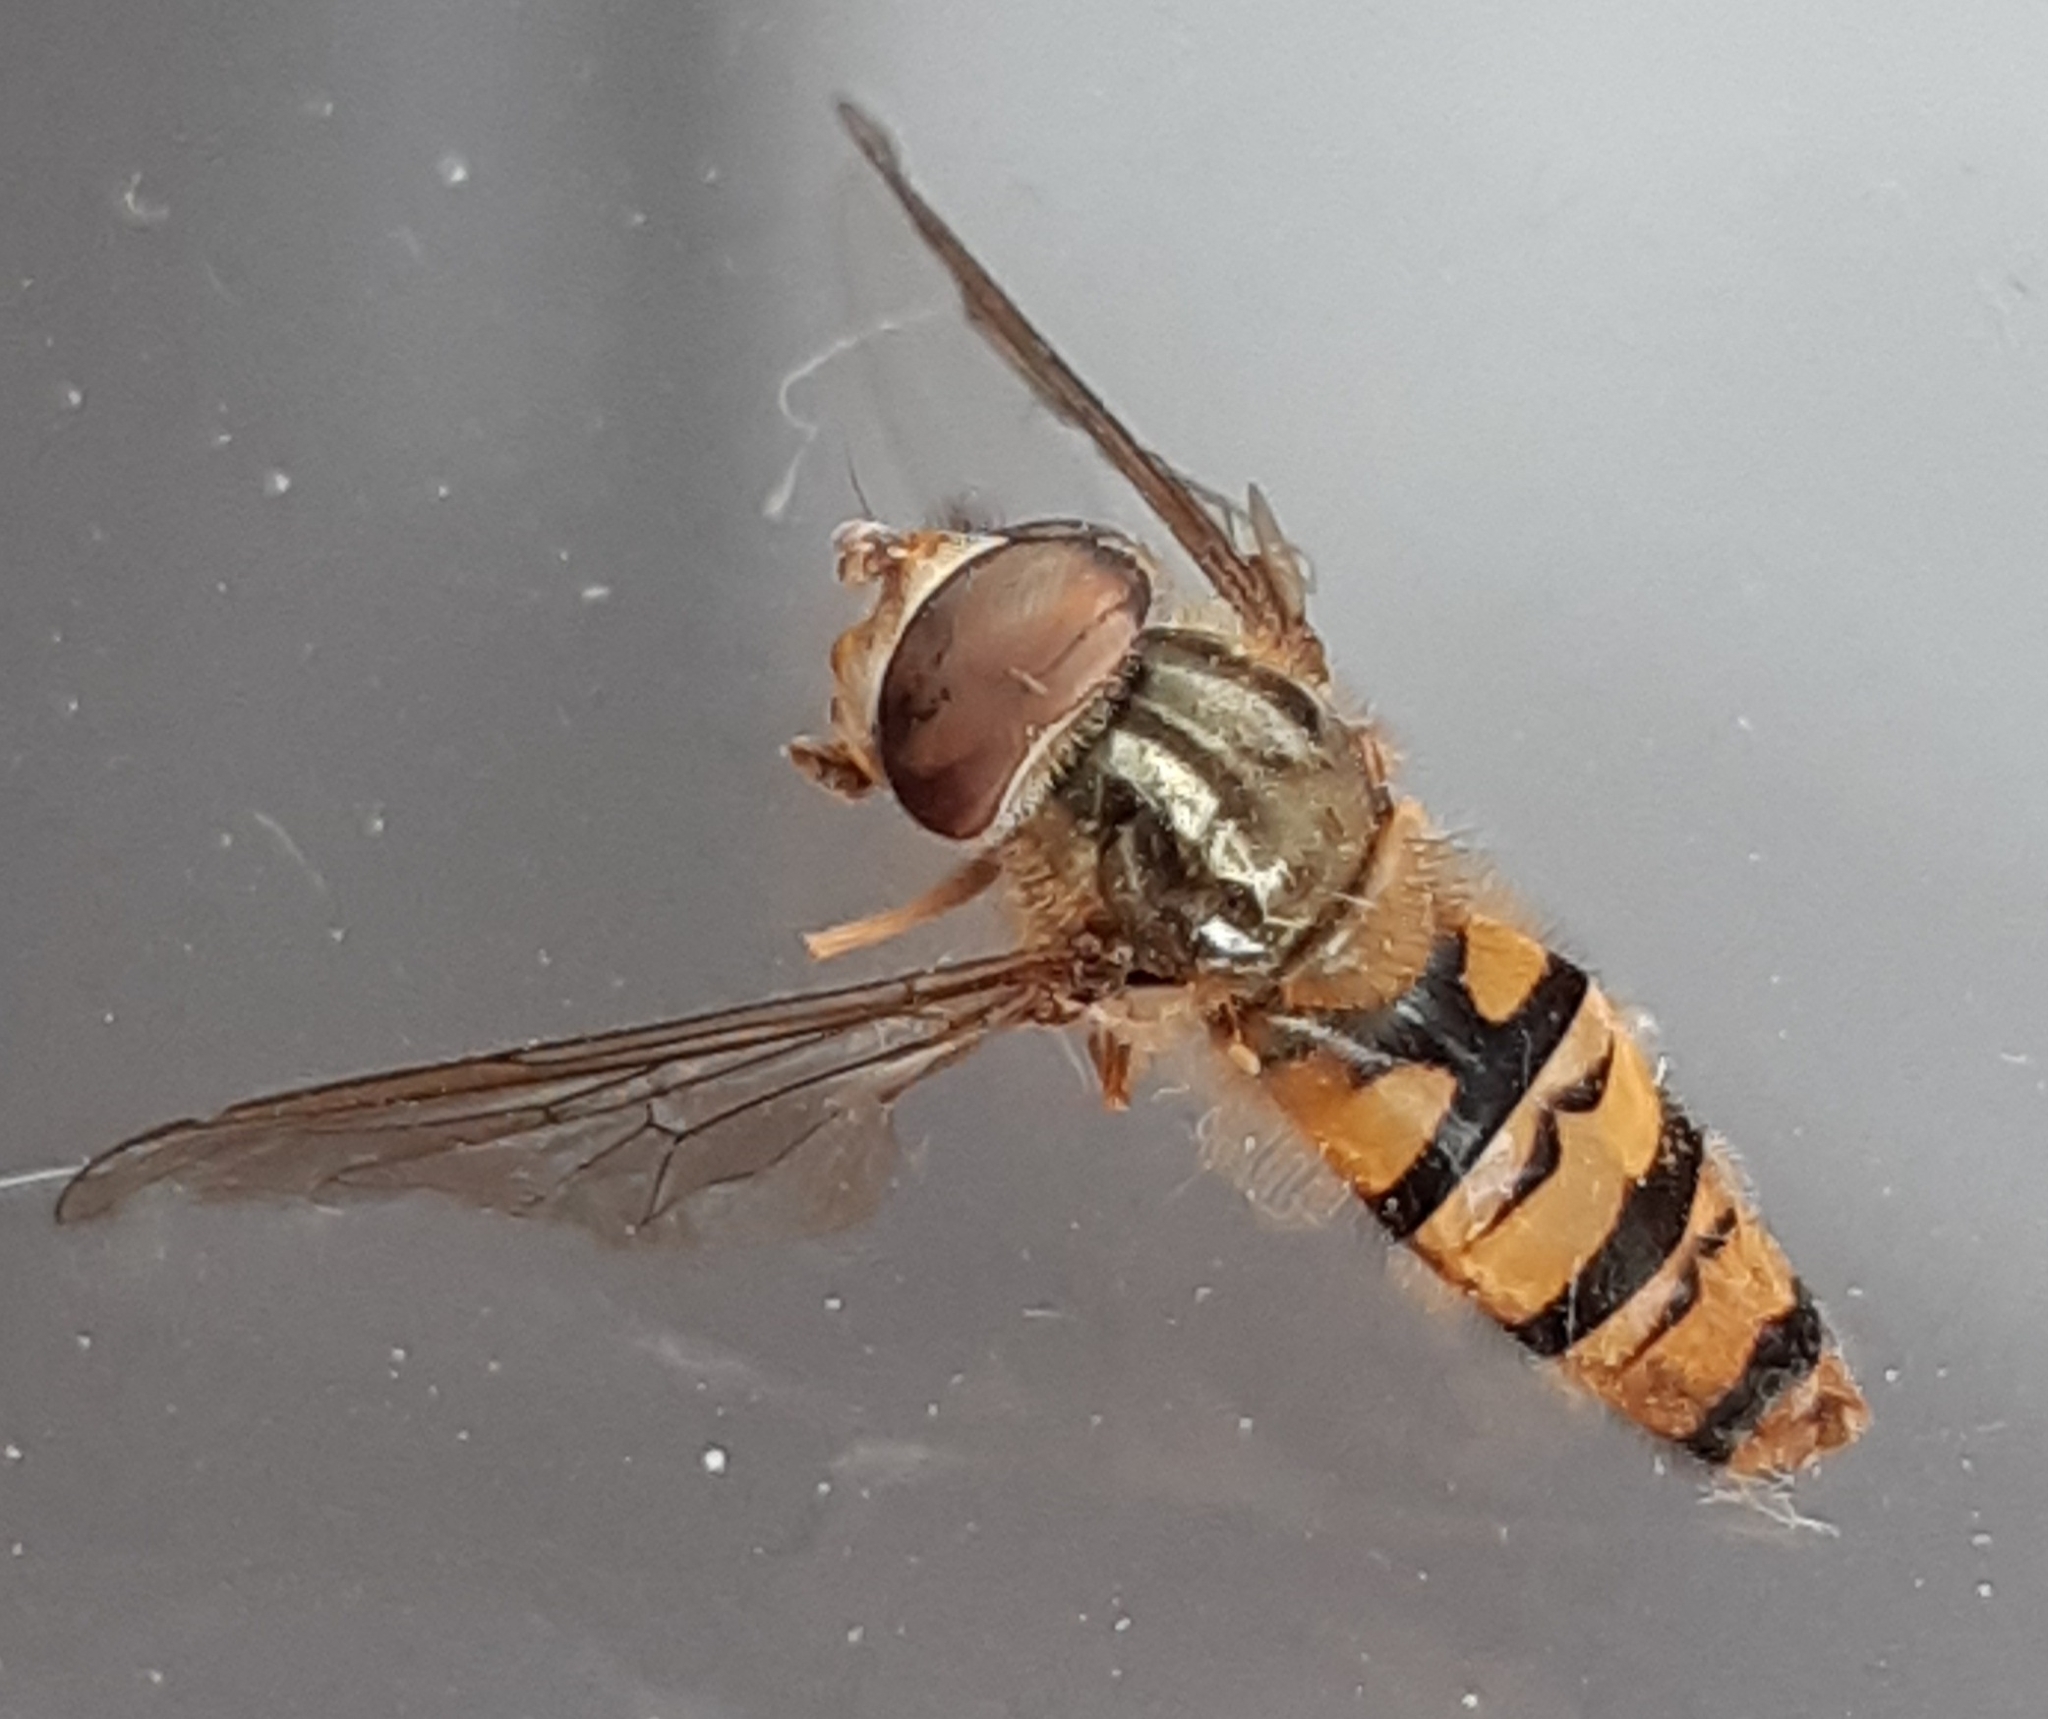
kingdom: Animalia
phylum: Arthropoda
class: Insecta
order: Diptera
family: Syrphidae
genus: Episyrphus
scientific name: Episyrphus balteatus
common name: Marmalade hoverfly
